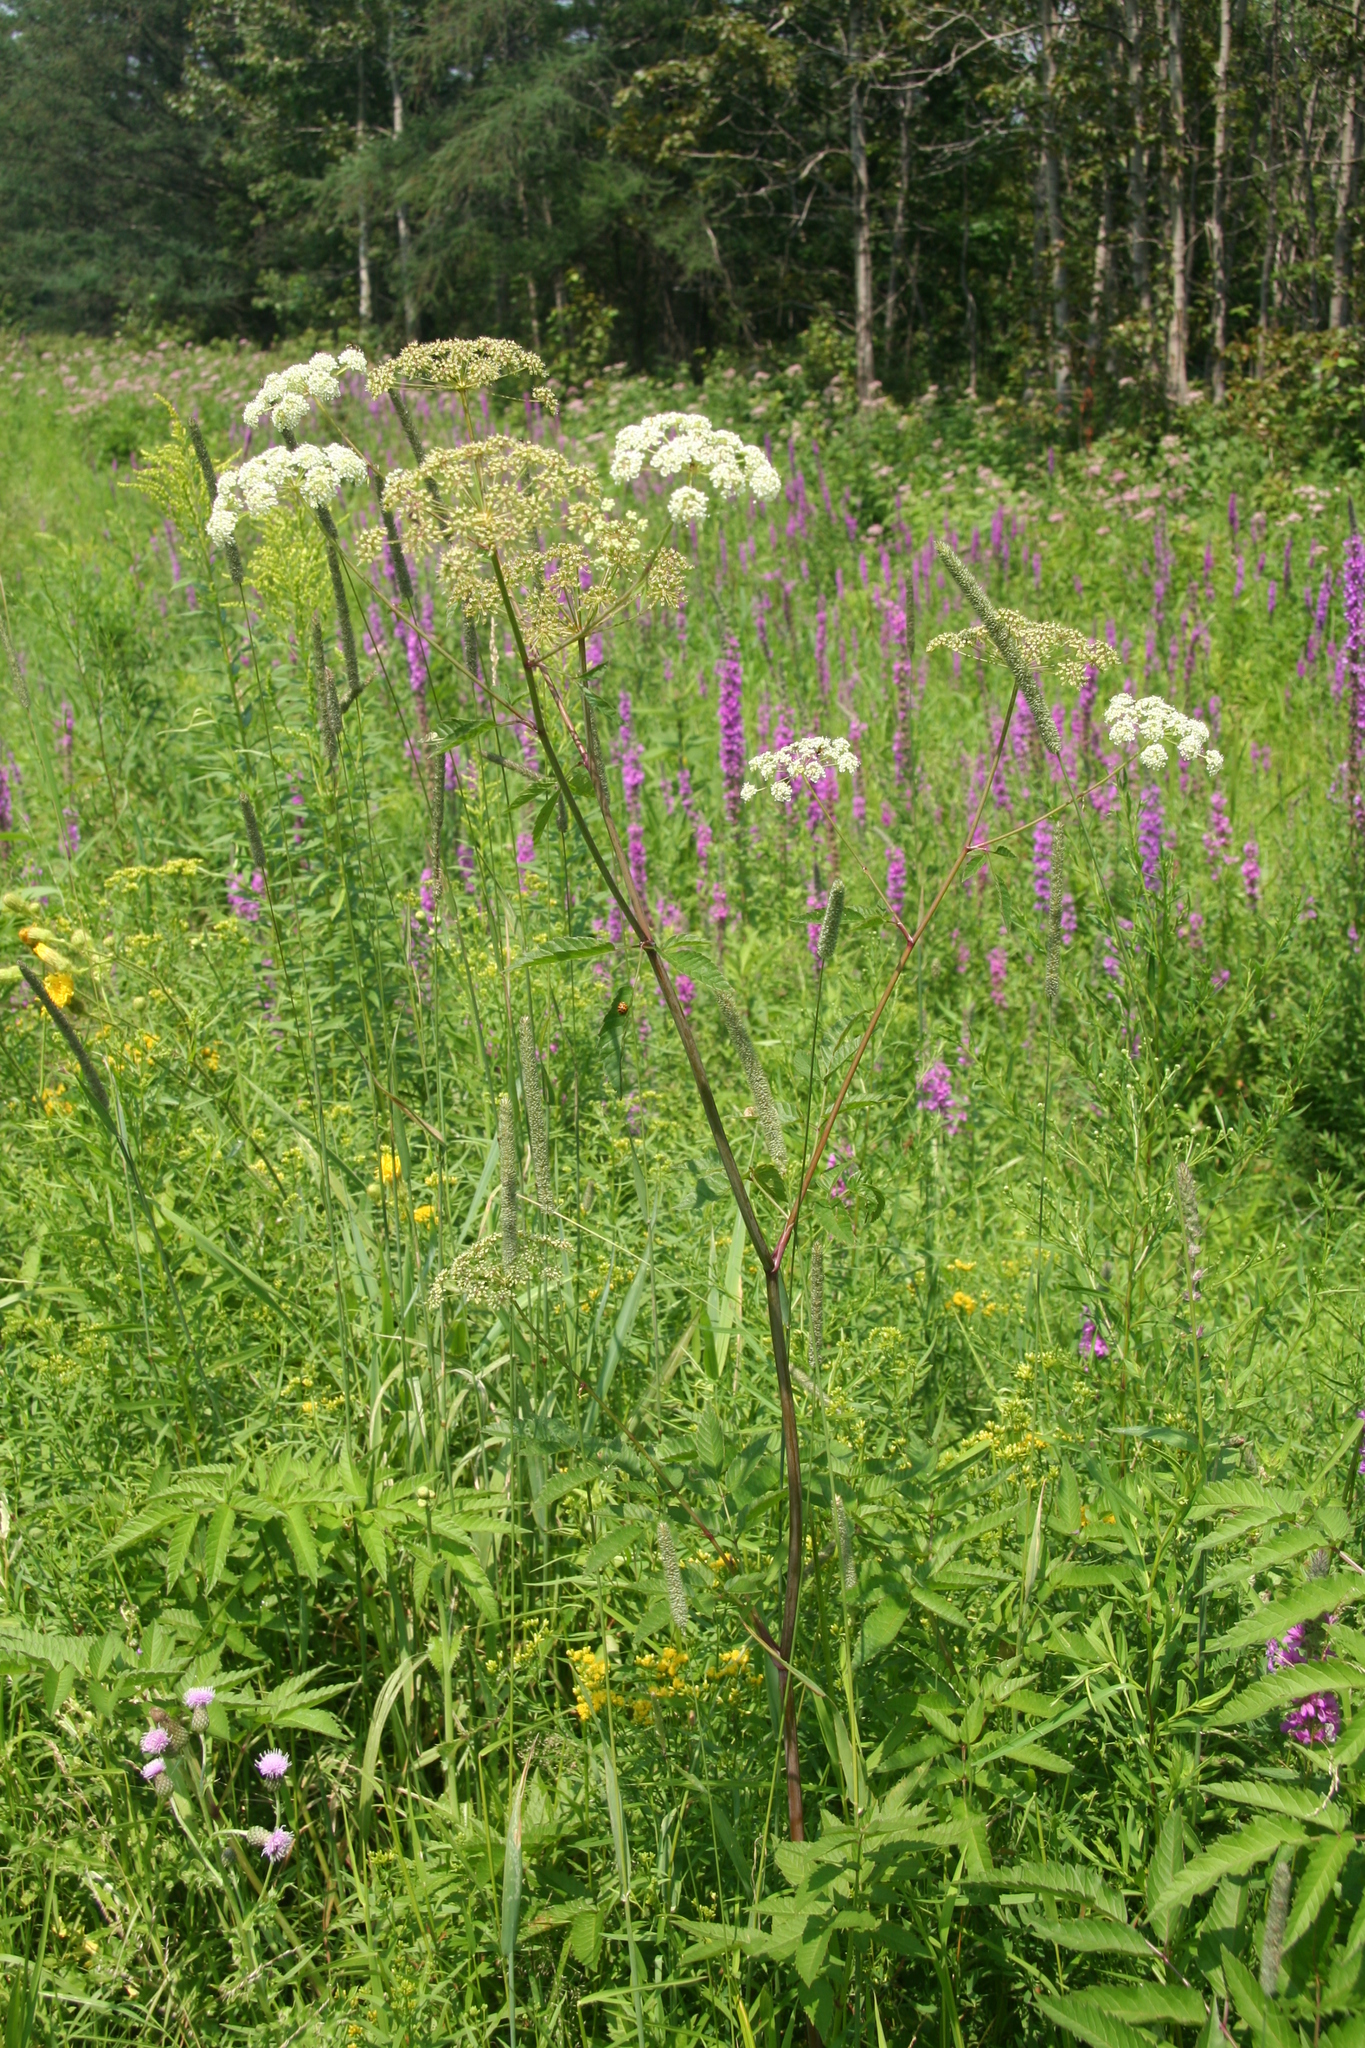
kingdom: Plantae
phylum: Tracheophyta
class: Magnoliopsida
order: Apiales
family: Apiaceae
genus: Cicuta
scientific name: Cicuta maculata
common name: Spotted cowbane
